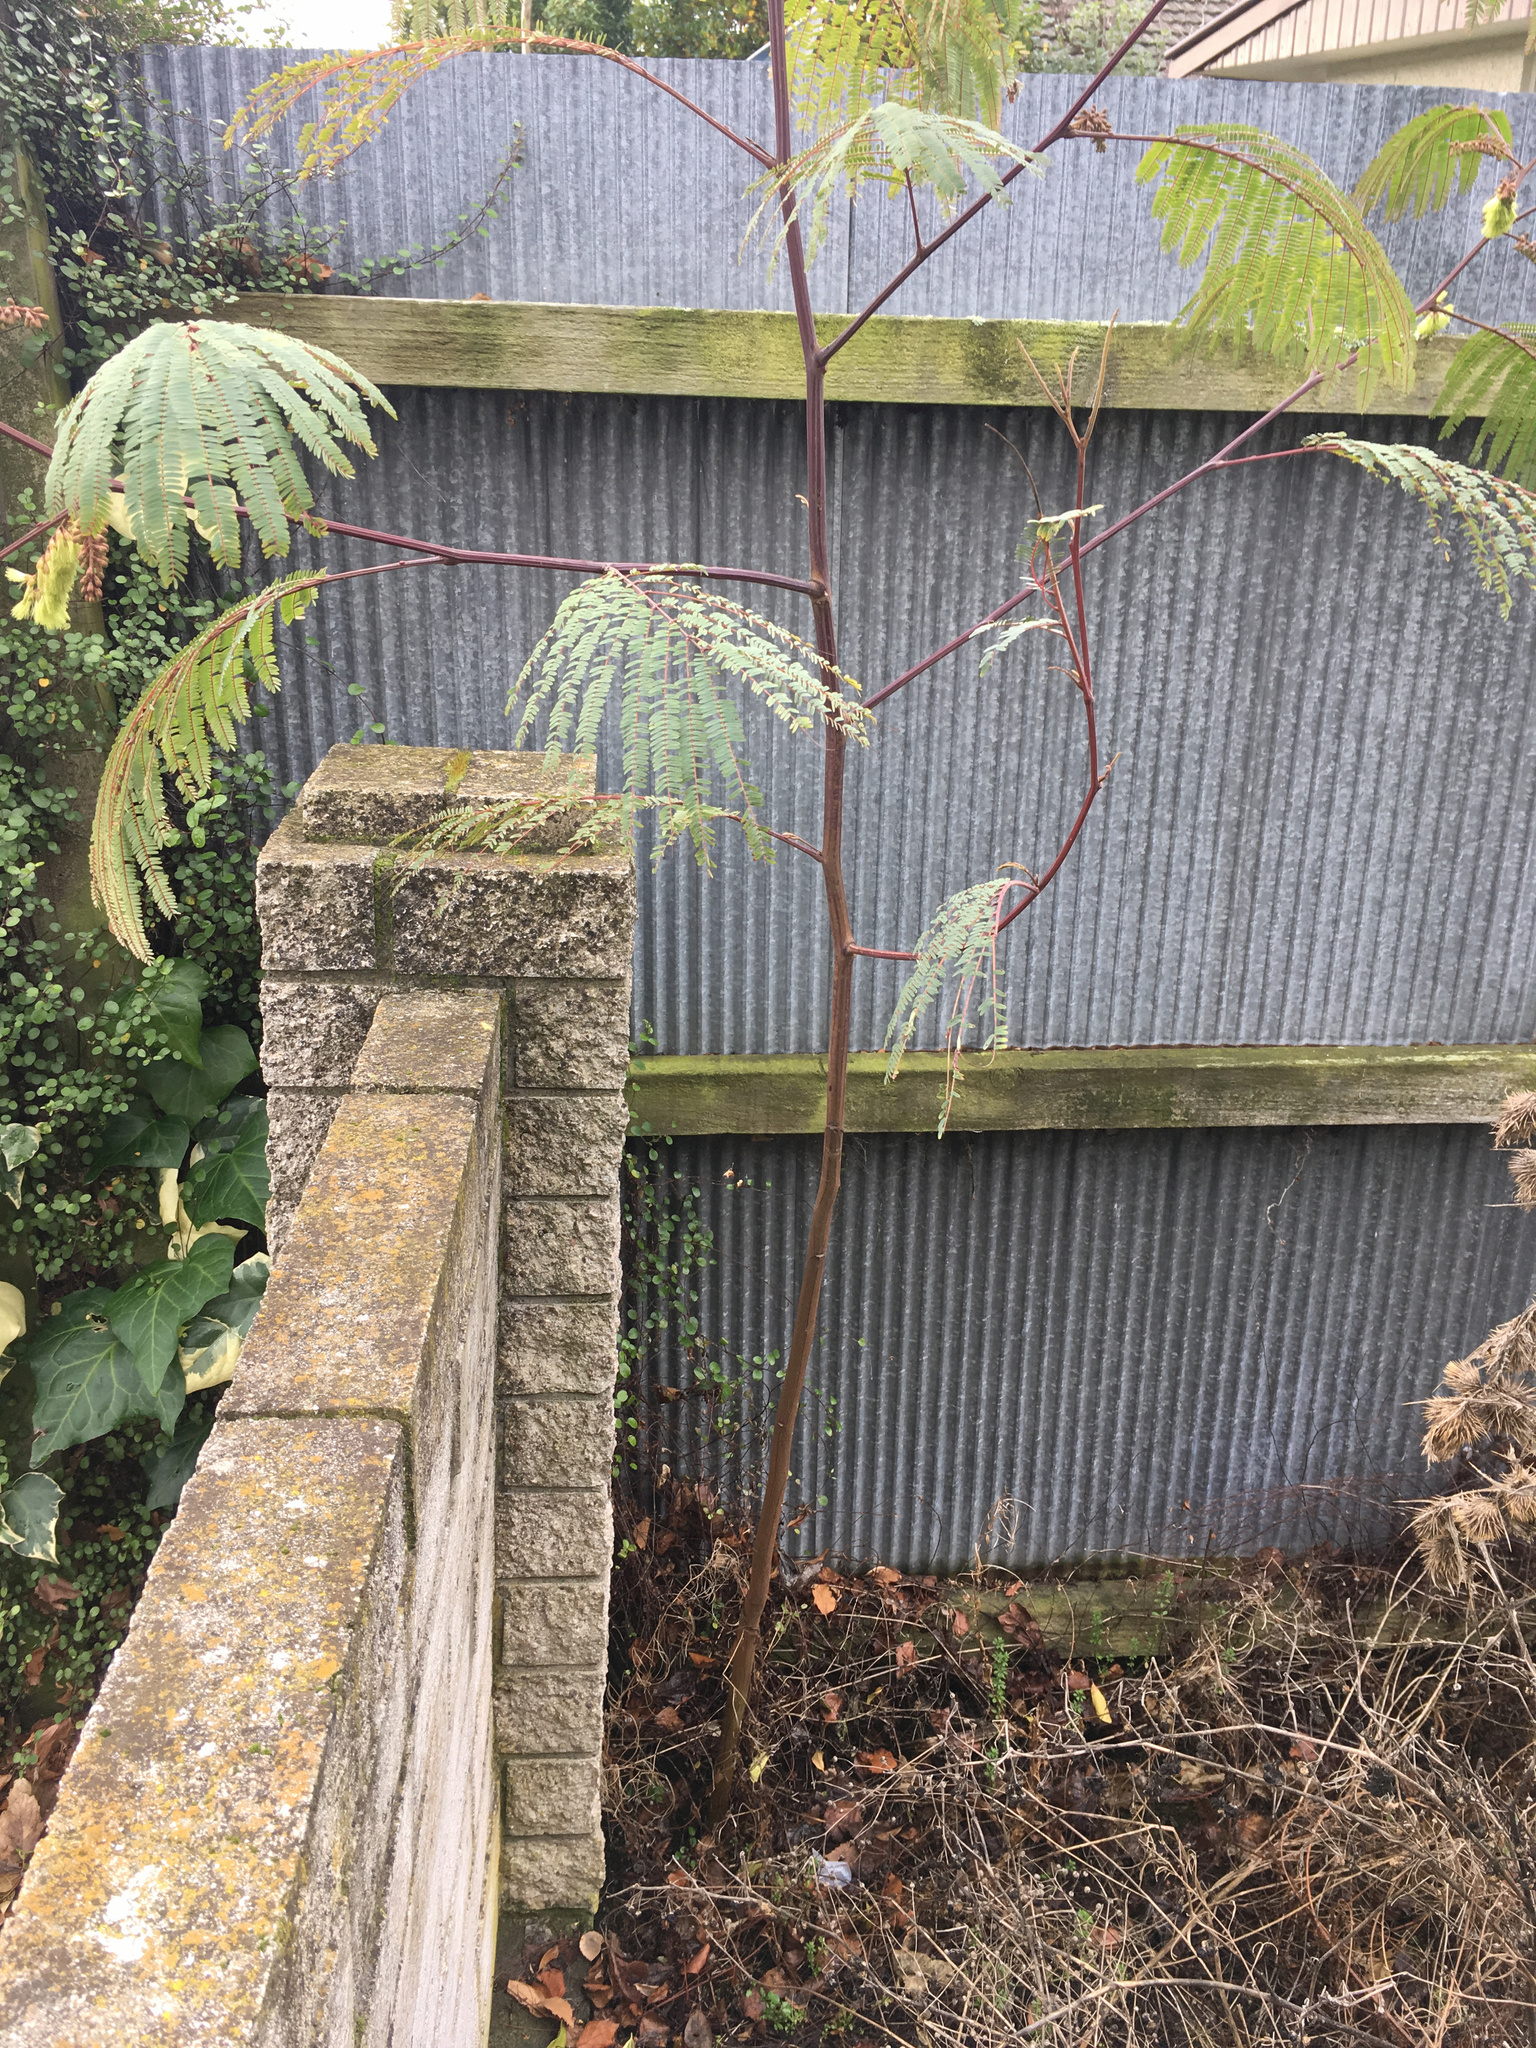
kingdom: Plantae
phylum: Tracheophyta
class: Magnoliopsida
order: Fabales
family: Fabaceae
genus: Paraserianthes
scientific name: Paraserianthes lophantha
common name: Plume albizia
